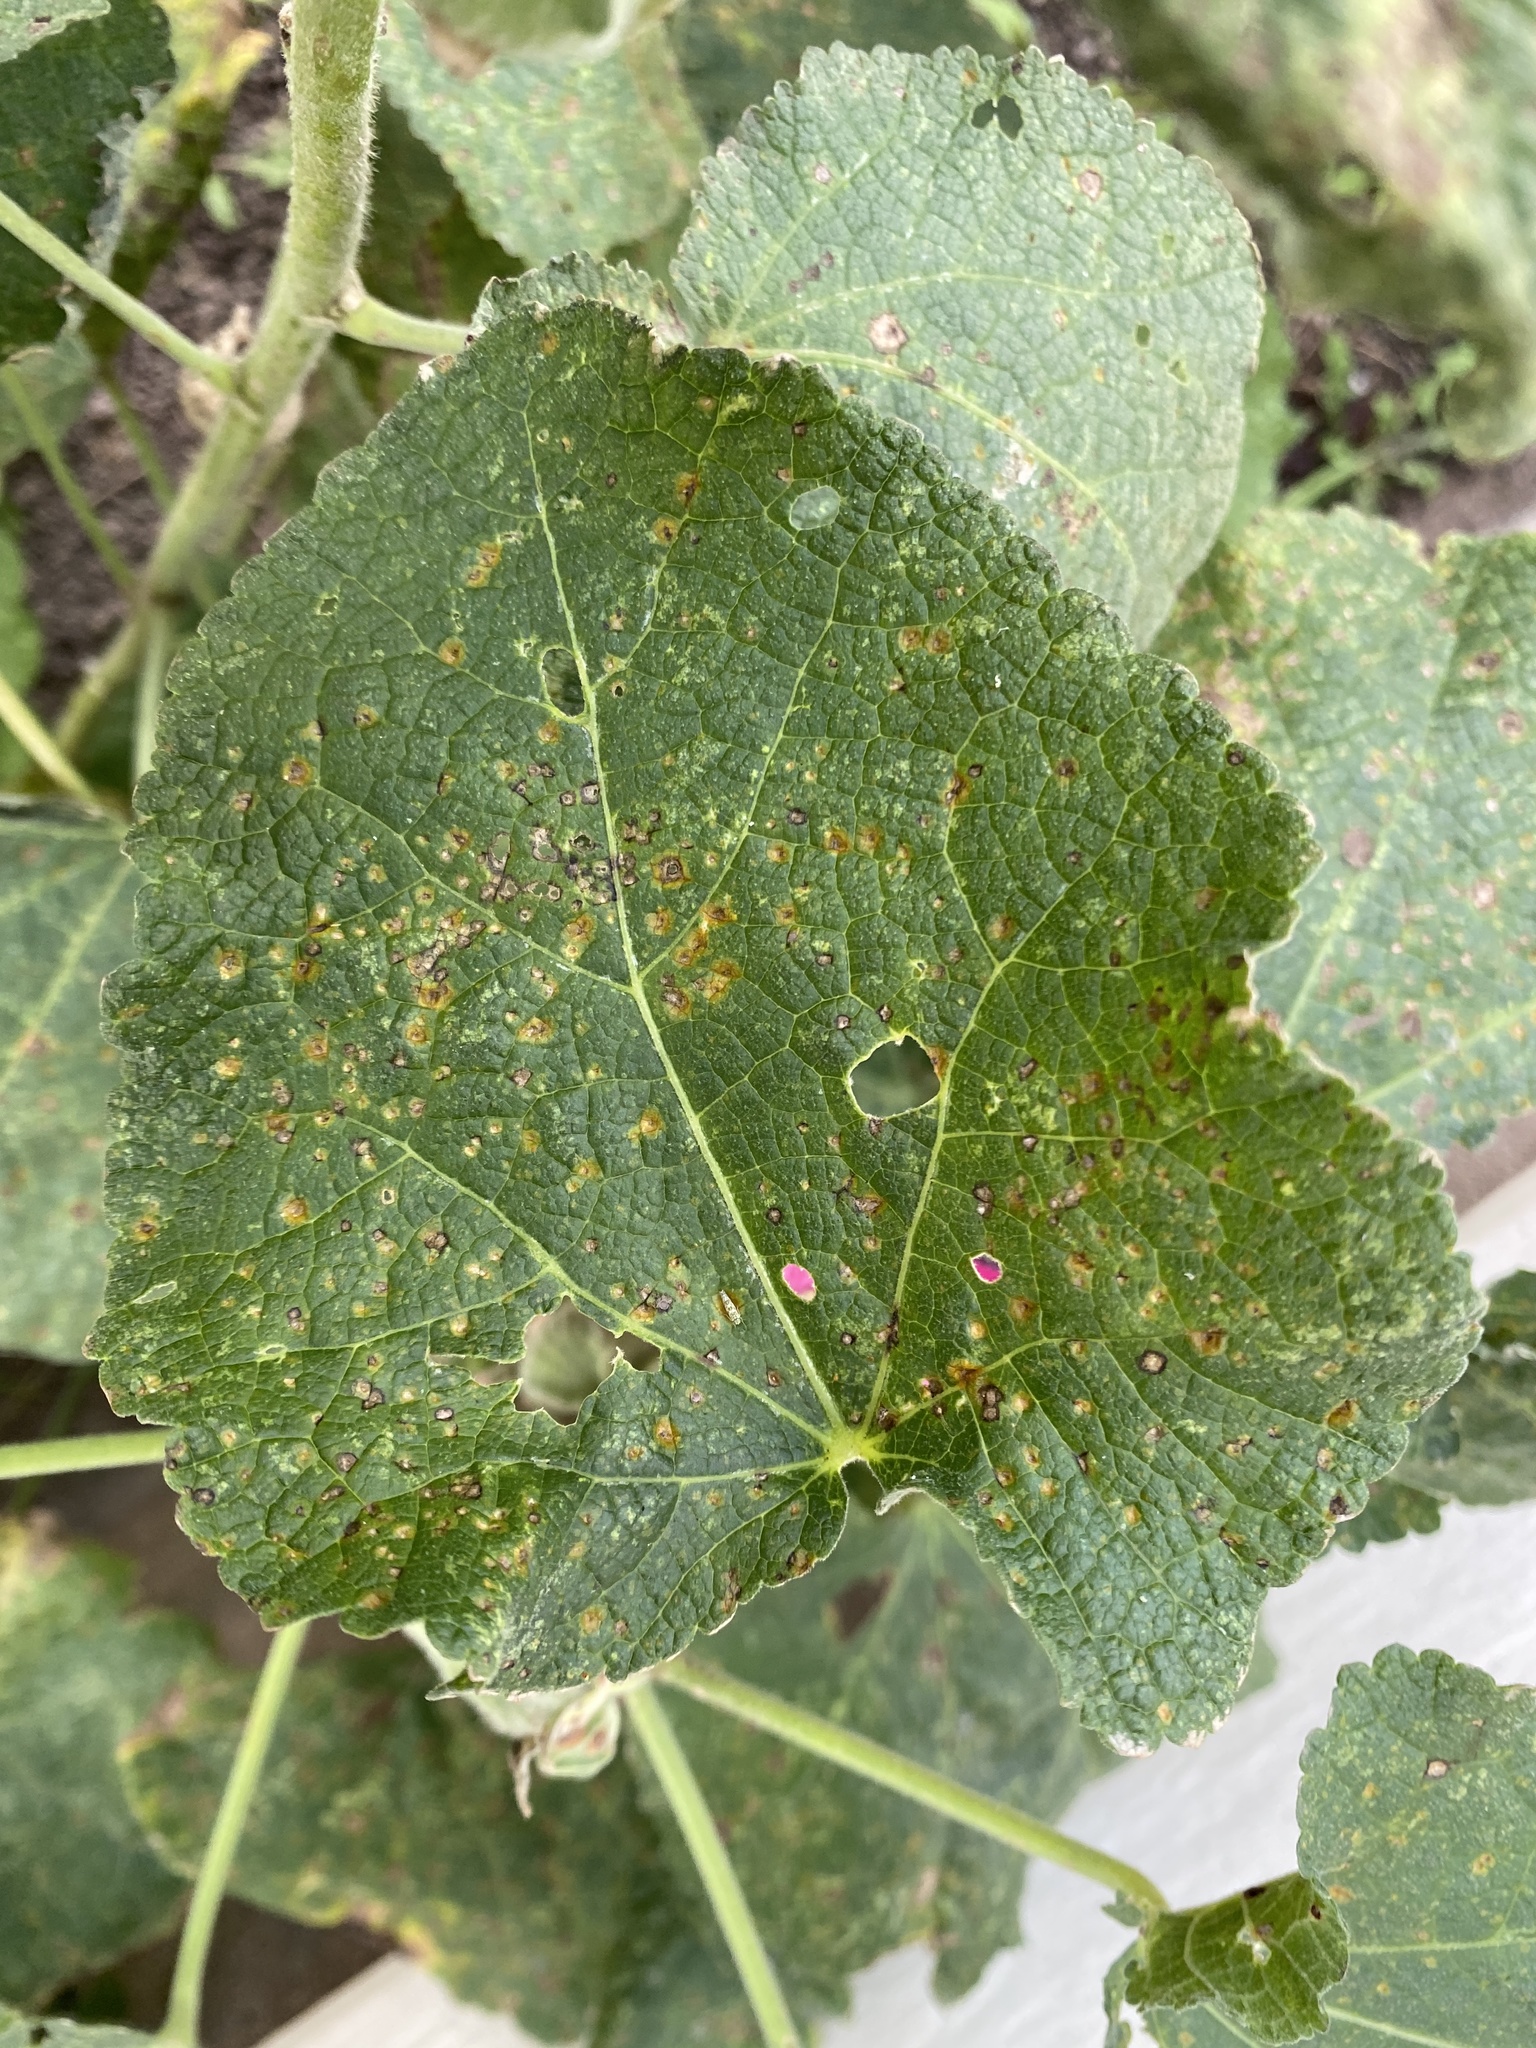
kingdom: Fungi
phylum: Basidiomycota
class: Pucciniomycetes
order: Pucciniales
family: Pucciniaceae
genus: Puccinia
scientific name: Puccinia malvacearum
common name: Hollyhock rust
